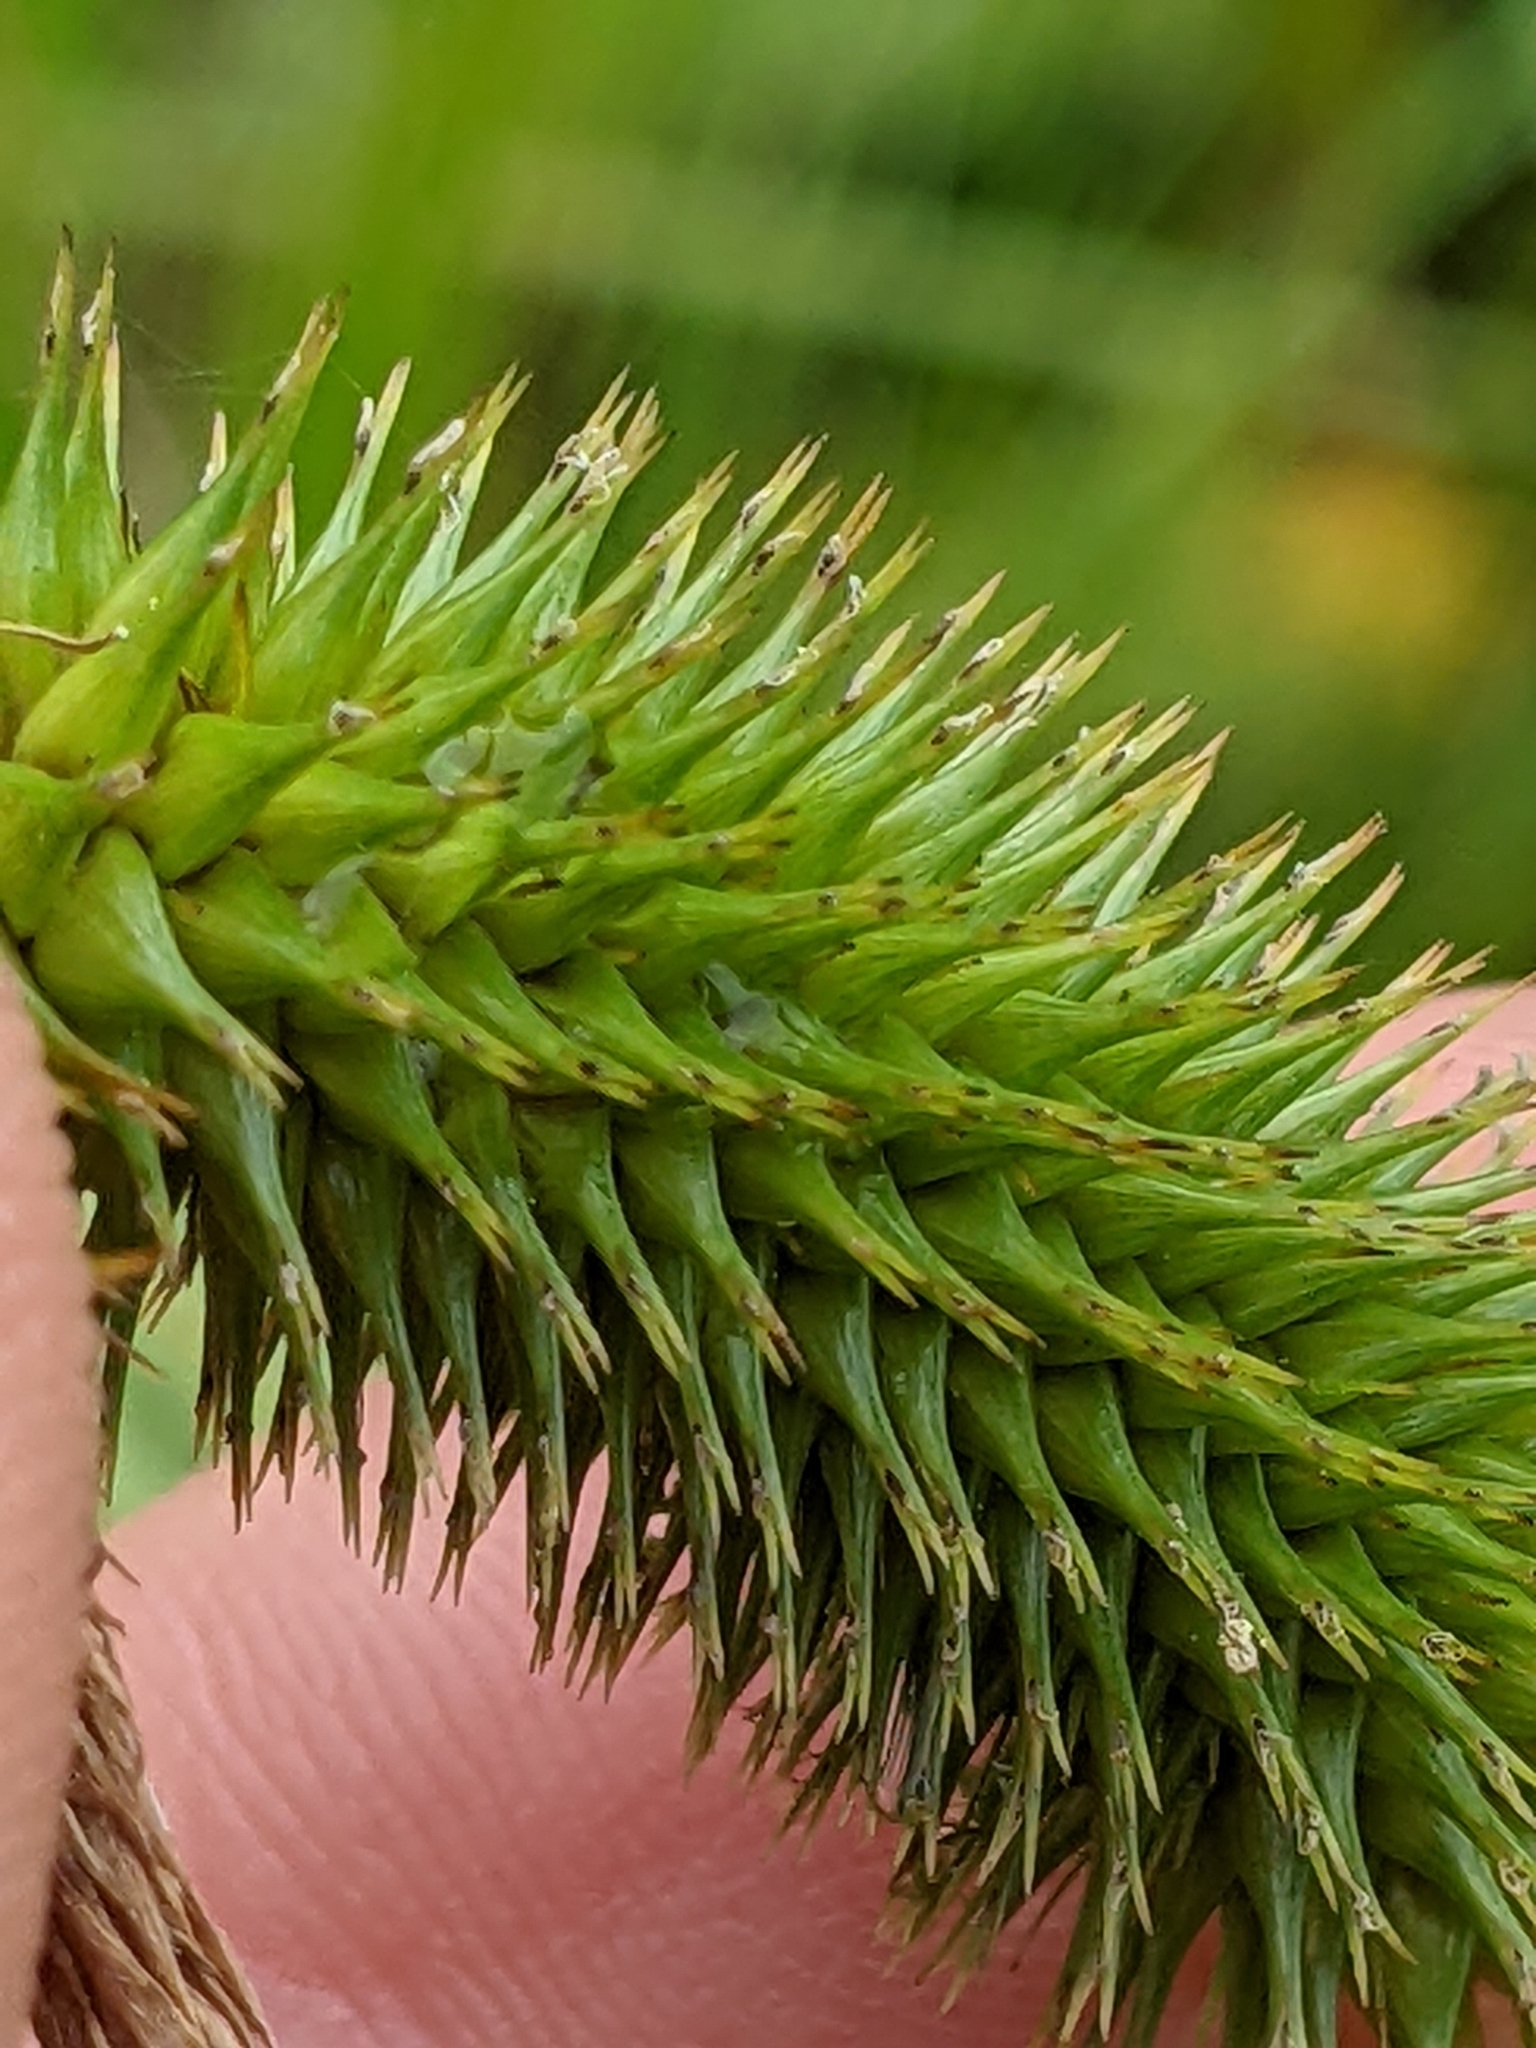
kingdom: Plantae
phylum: Tracheophyta
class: Liliopsida
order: Poales
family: Cyperaceae
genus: Carex
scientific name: Carex pseudocyperus
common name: Cyperus sedge
